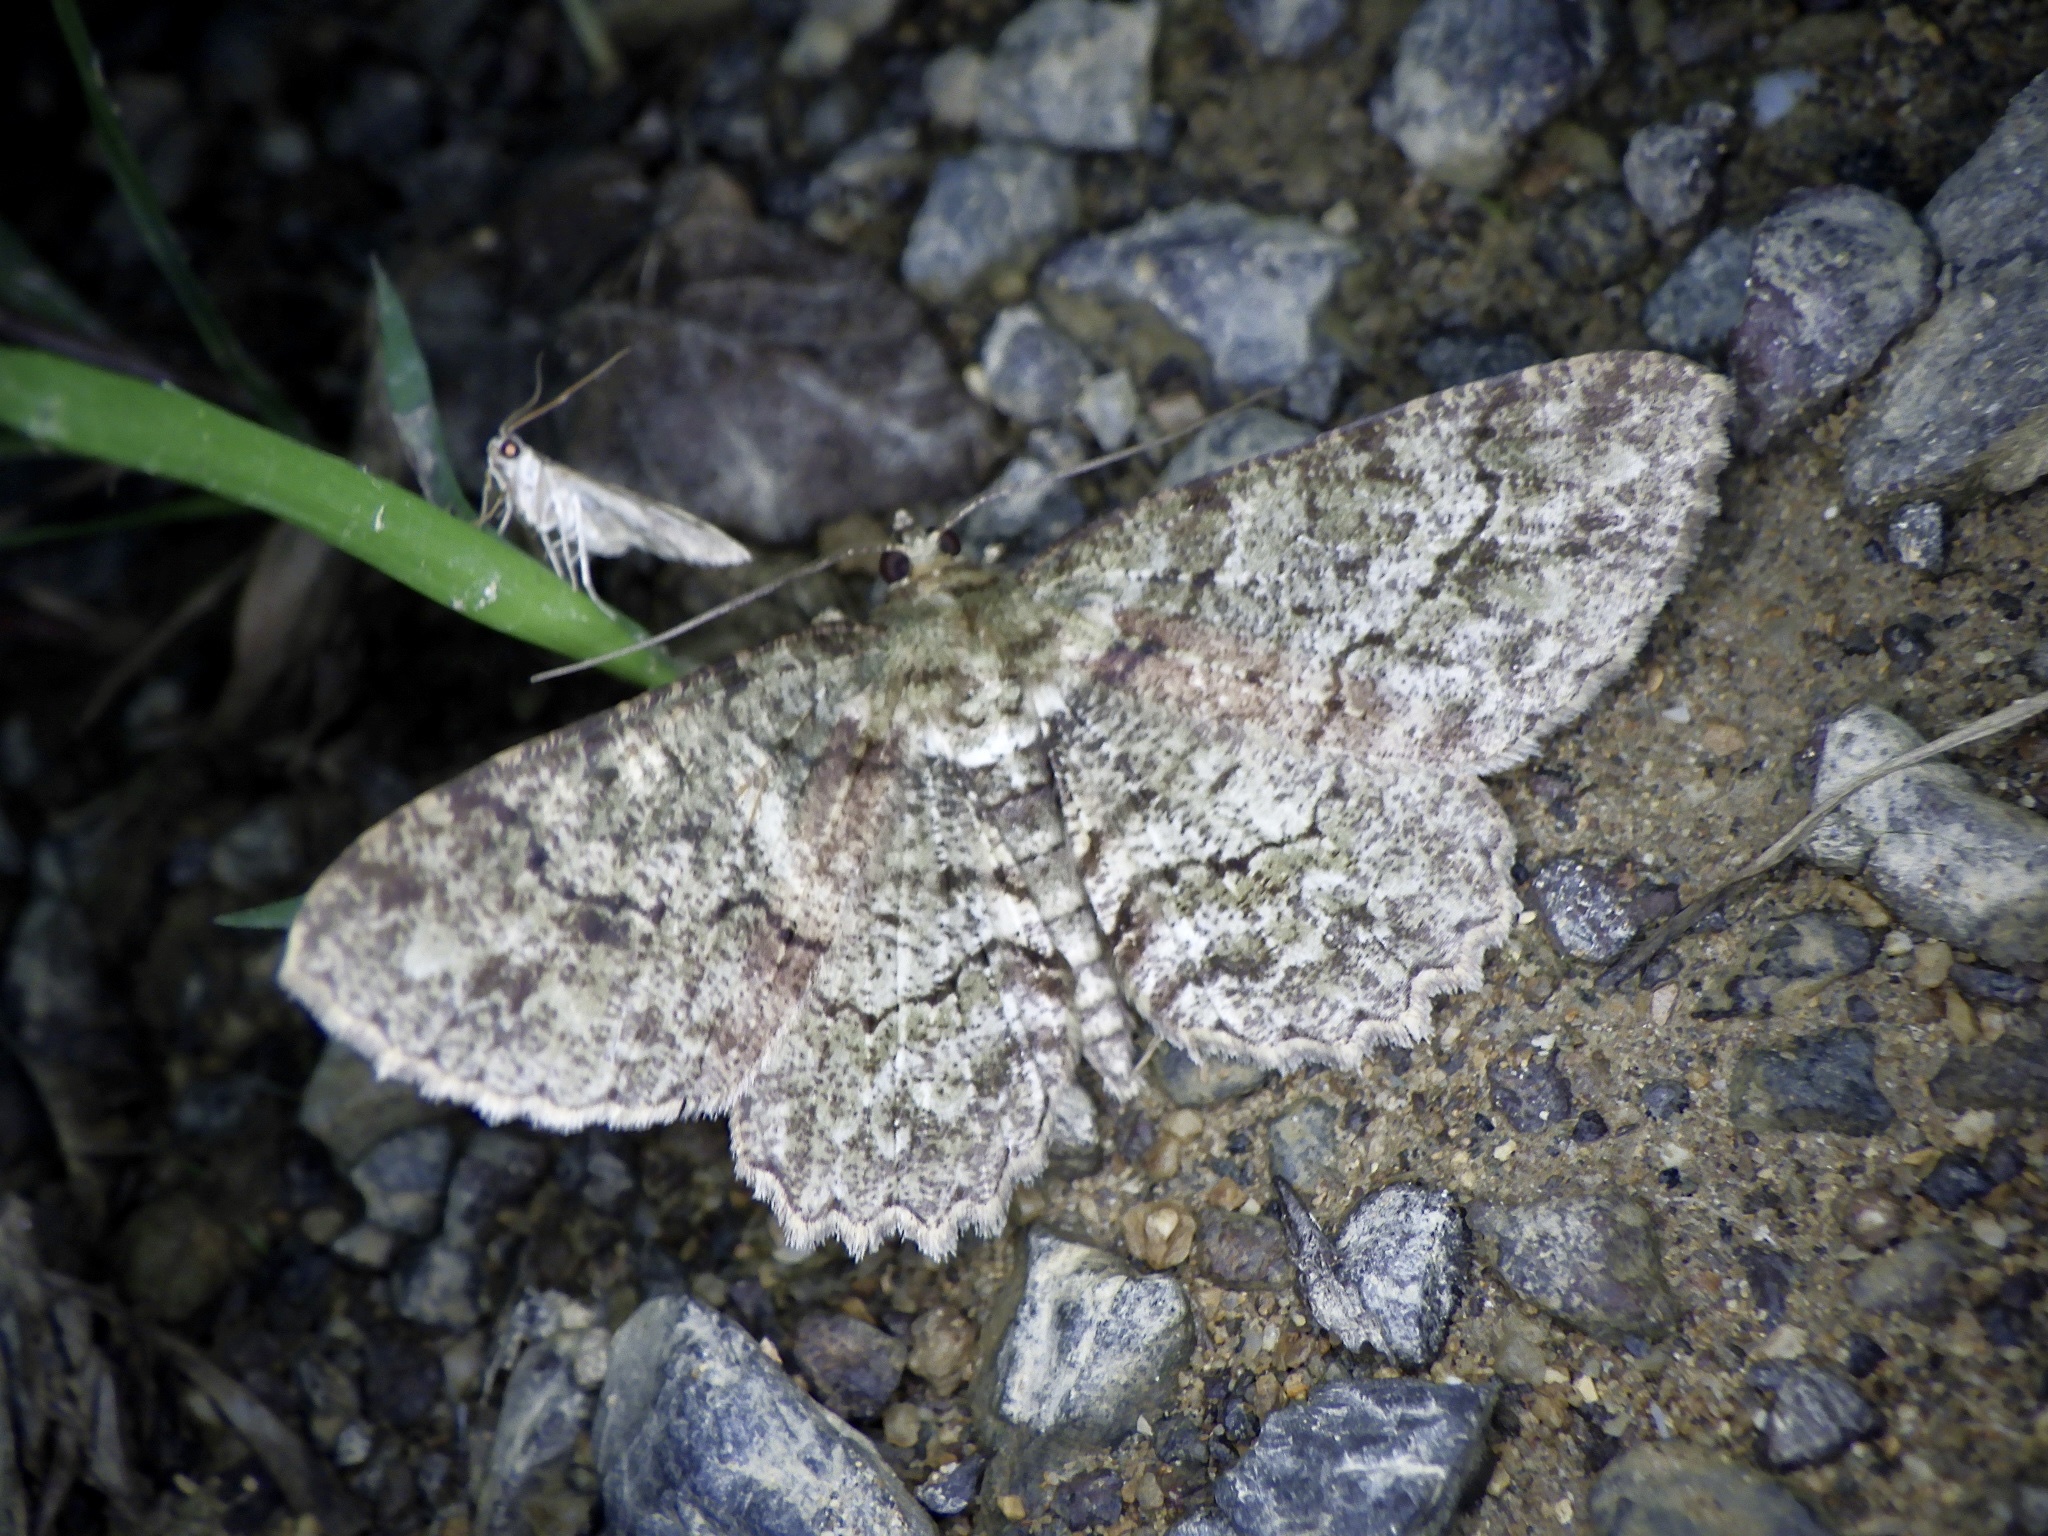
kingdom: Animalia
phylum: Arthropoda
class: Insecta
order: Lepidoptera
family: Geometridae
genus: Paradarisa
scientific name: Paradarisa chloauges
